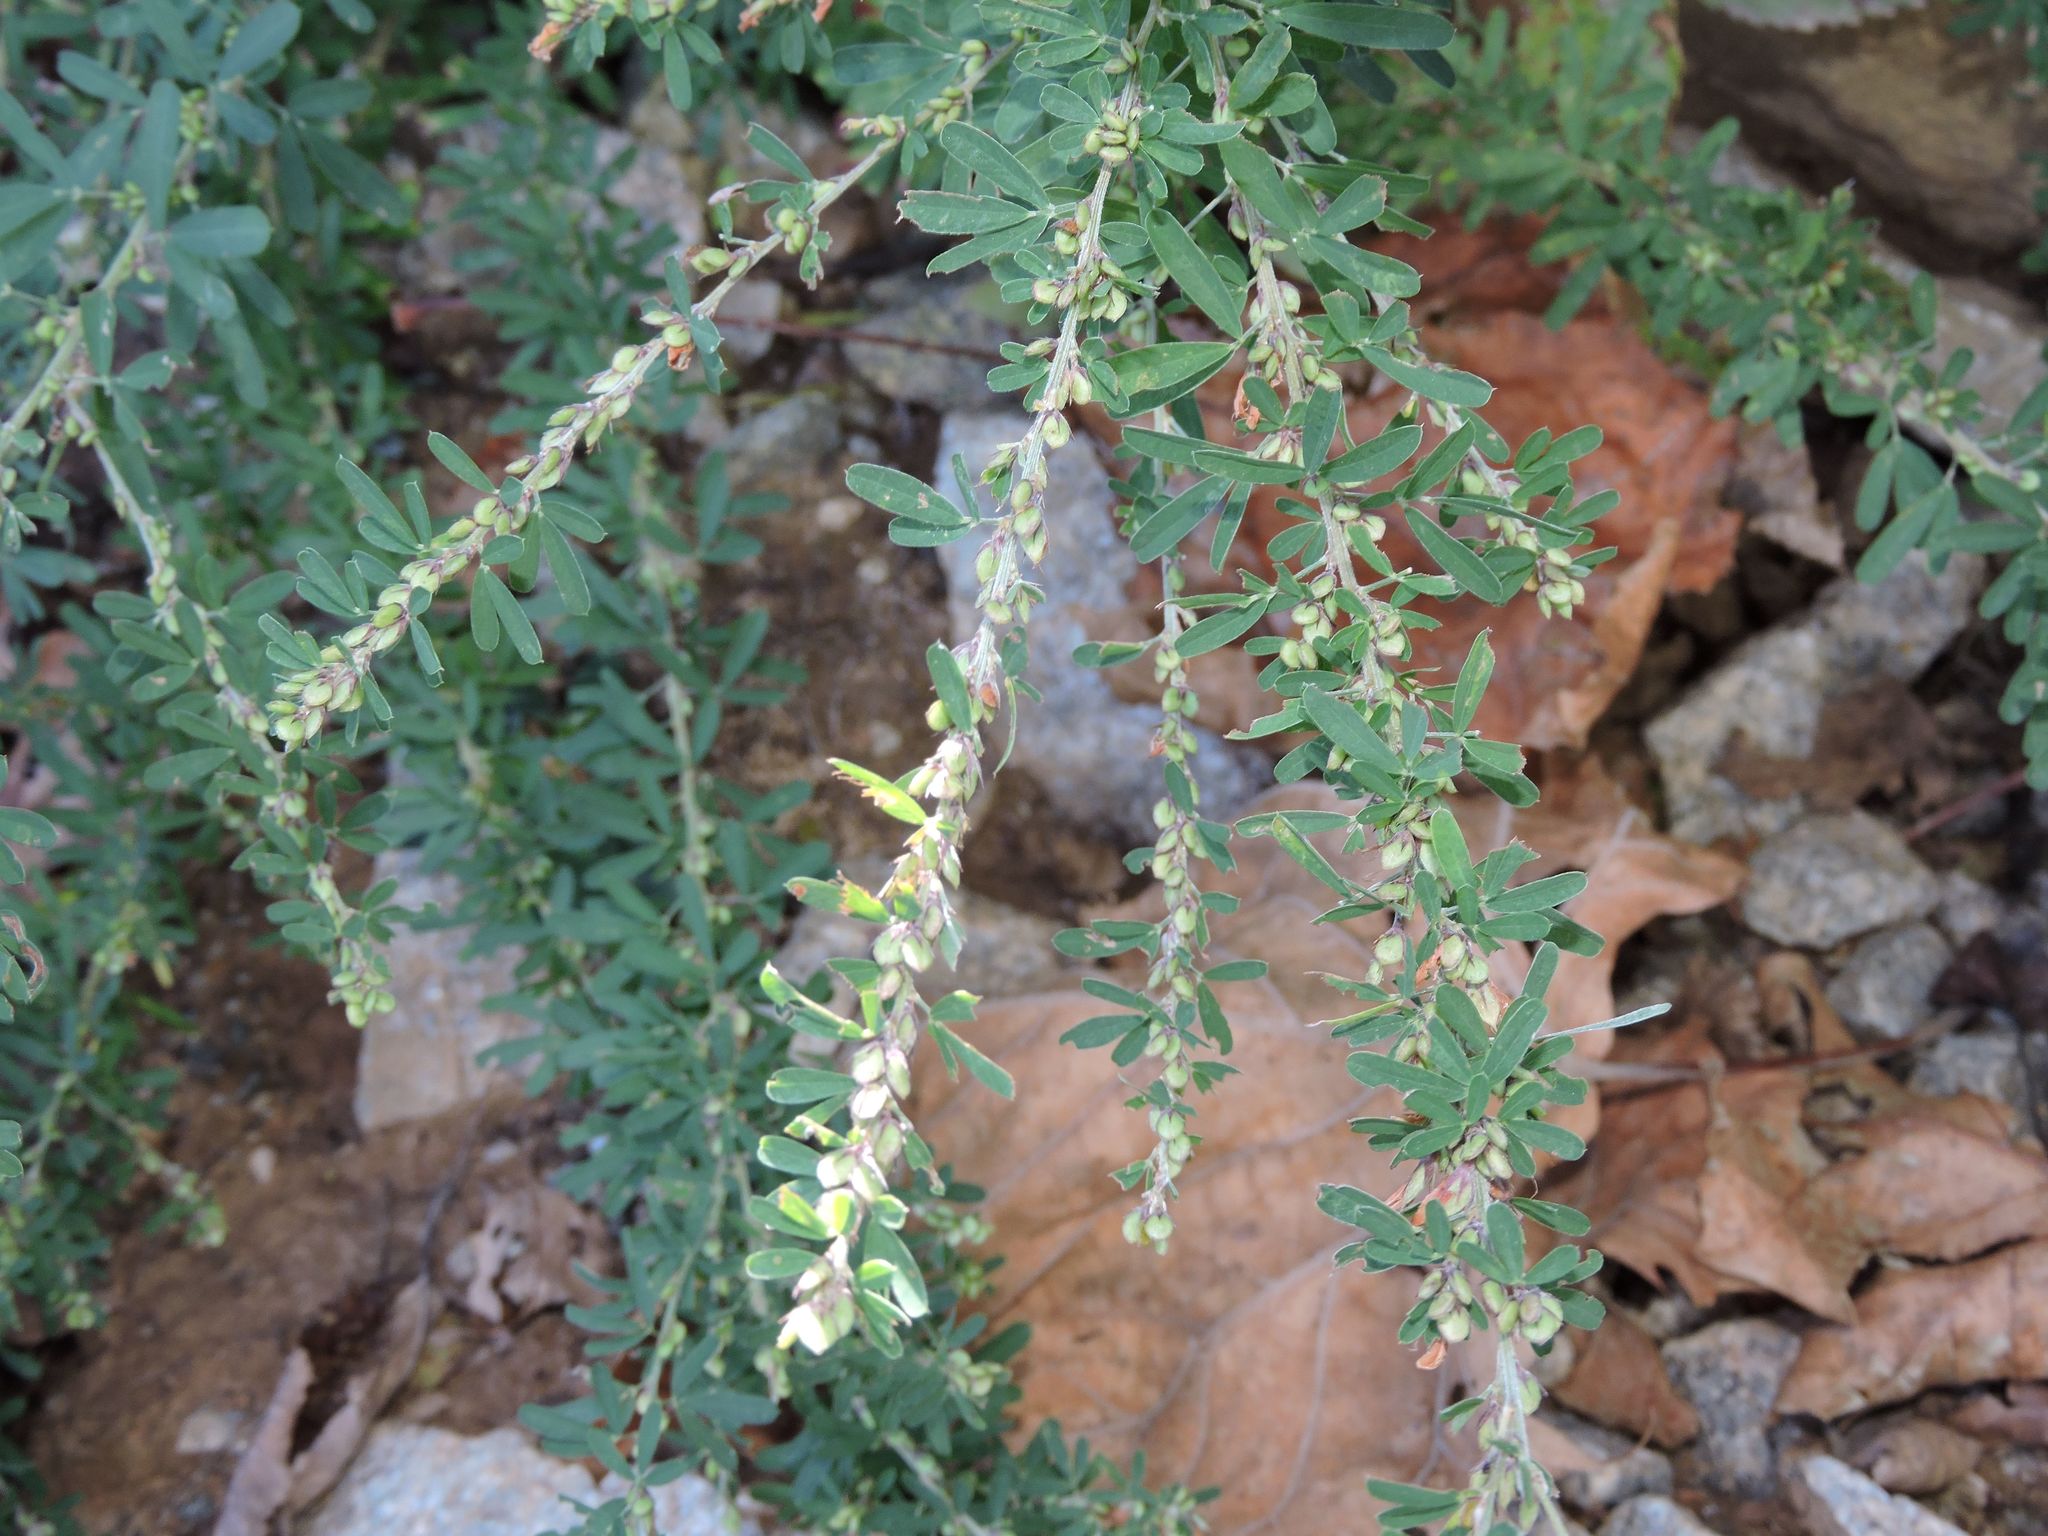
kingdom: Plantae
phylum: Tracheophyta
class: Magnoliopsida
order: Fabales
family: Fabaceae
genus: Lespedeza
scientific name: Lespedeza cuneata
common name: Chinese bush-clover
